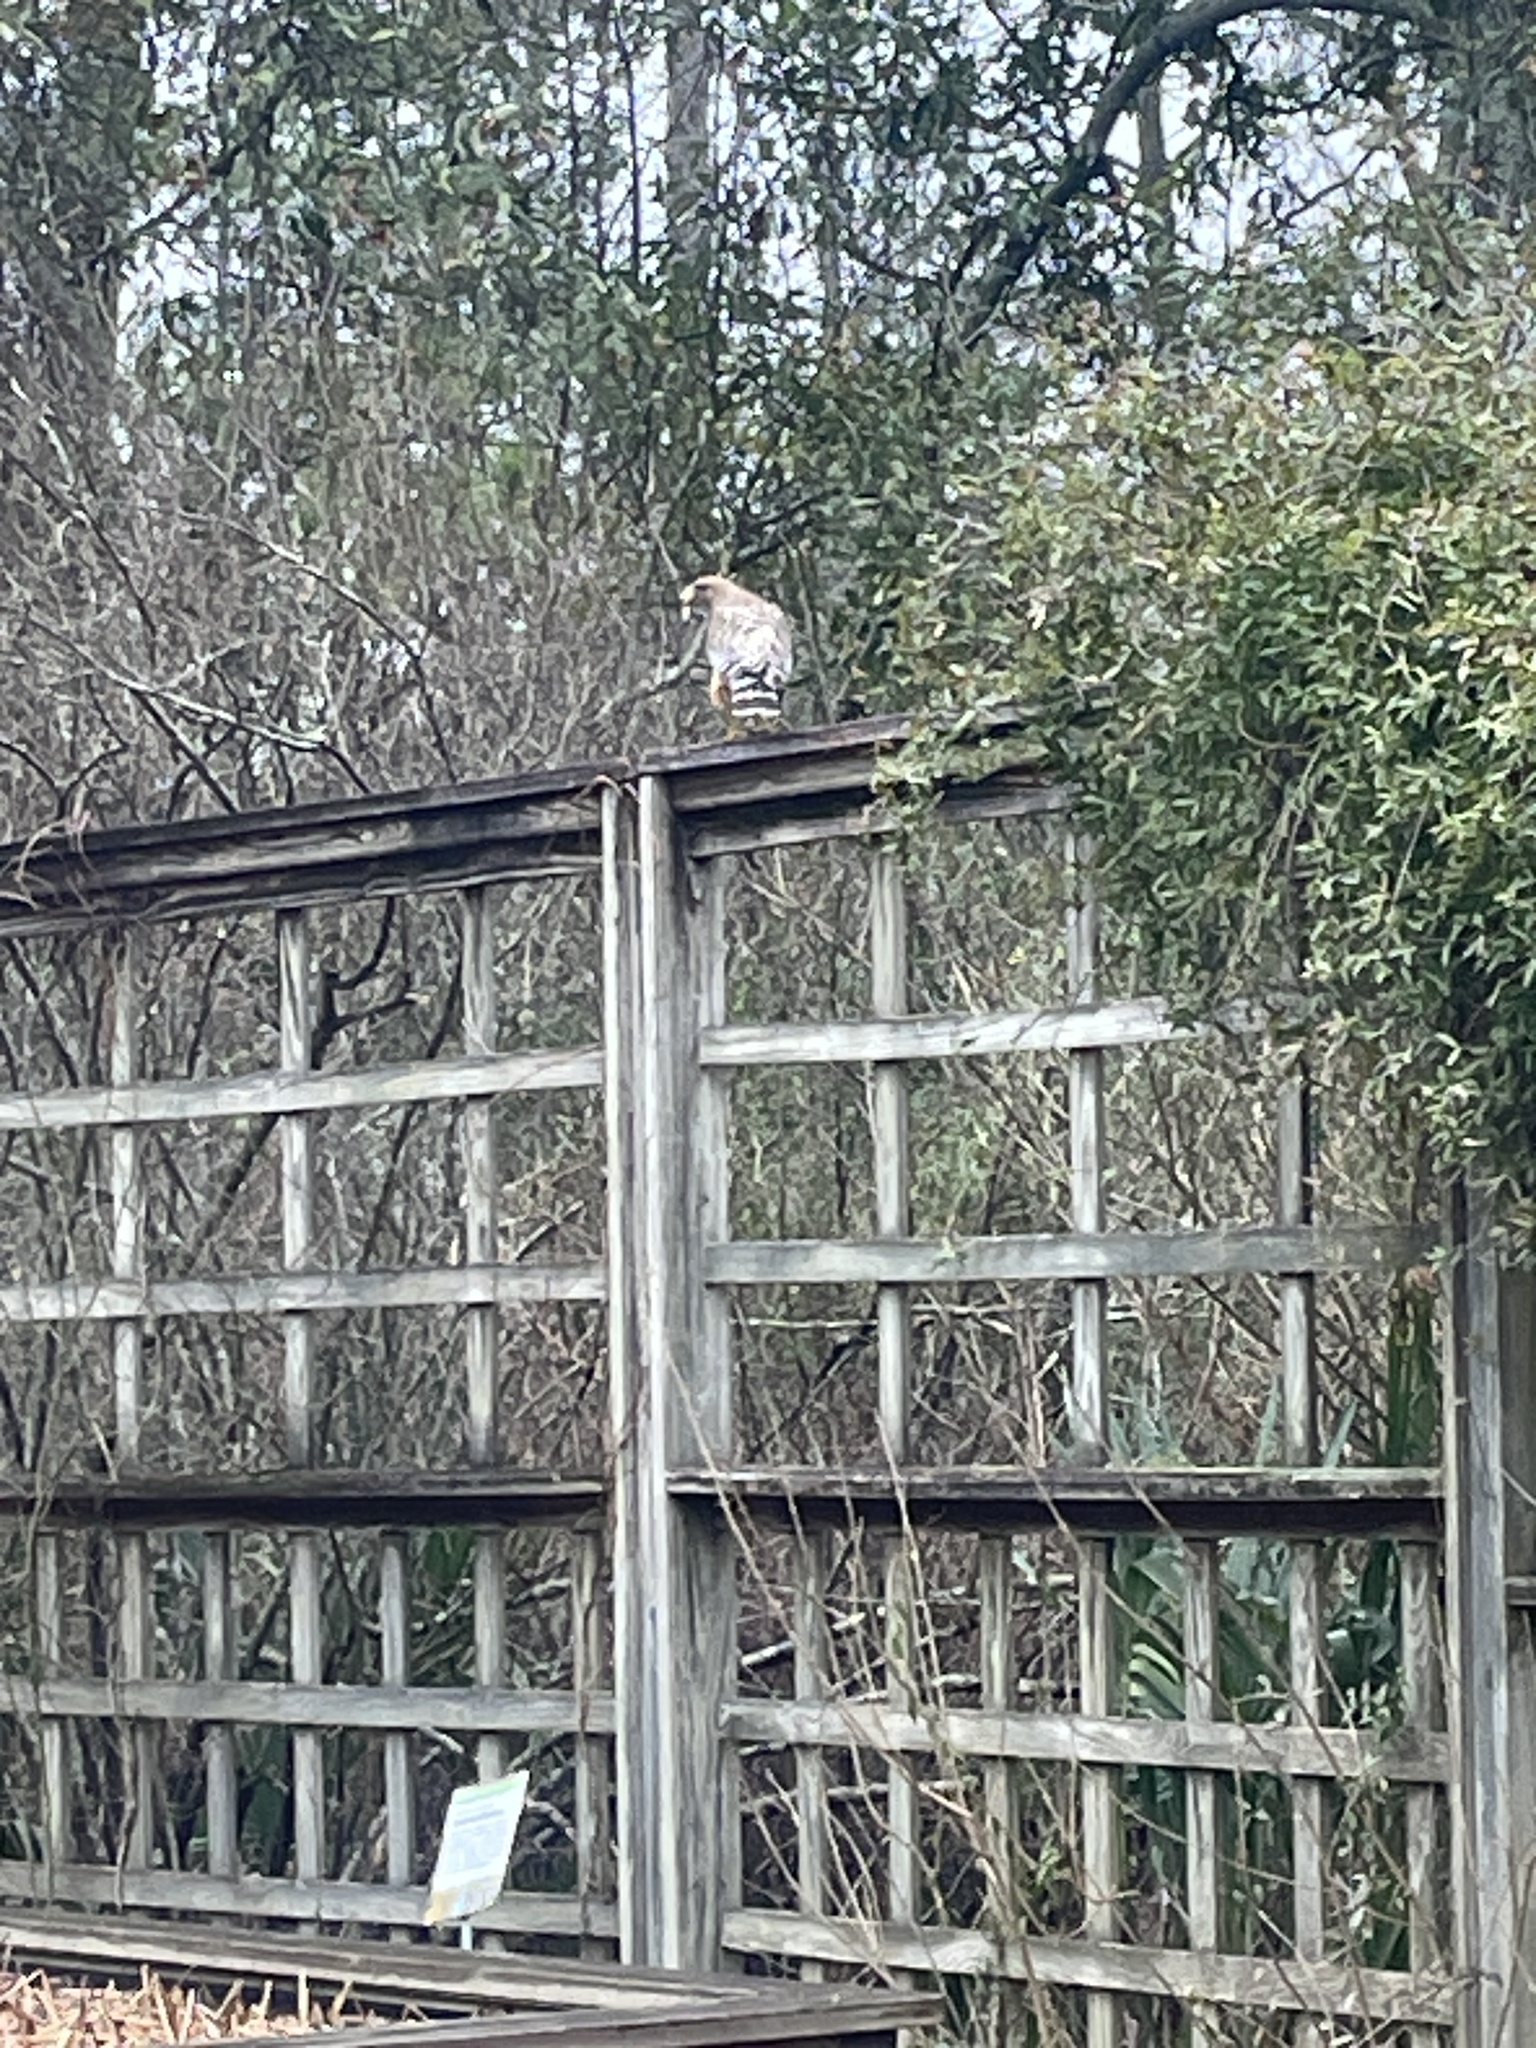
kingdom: Animalia
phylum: Chordata
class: Aves
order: Accipitriformes
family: Accipitridae
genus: Buteo
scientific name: Buteo lineatus
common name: Red-shouldered hawk
